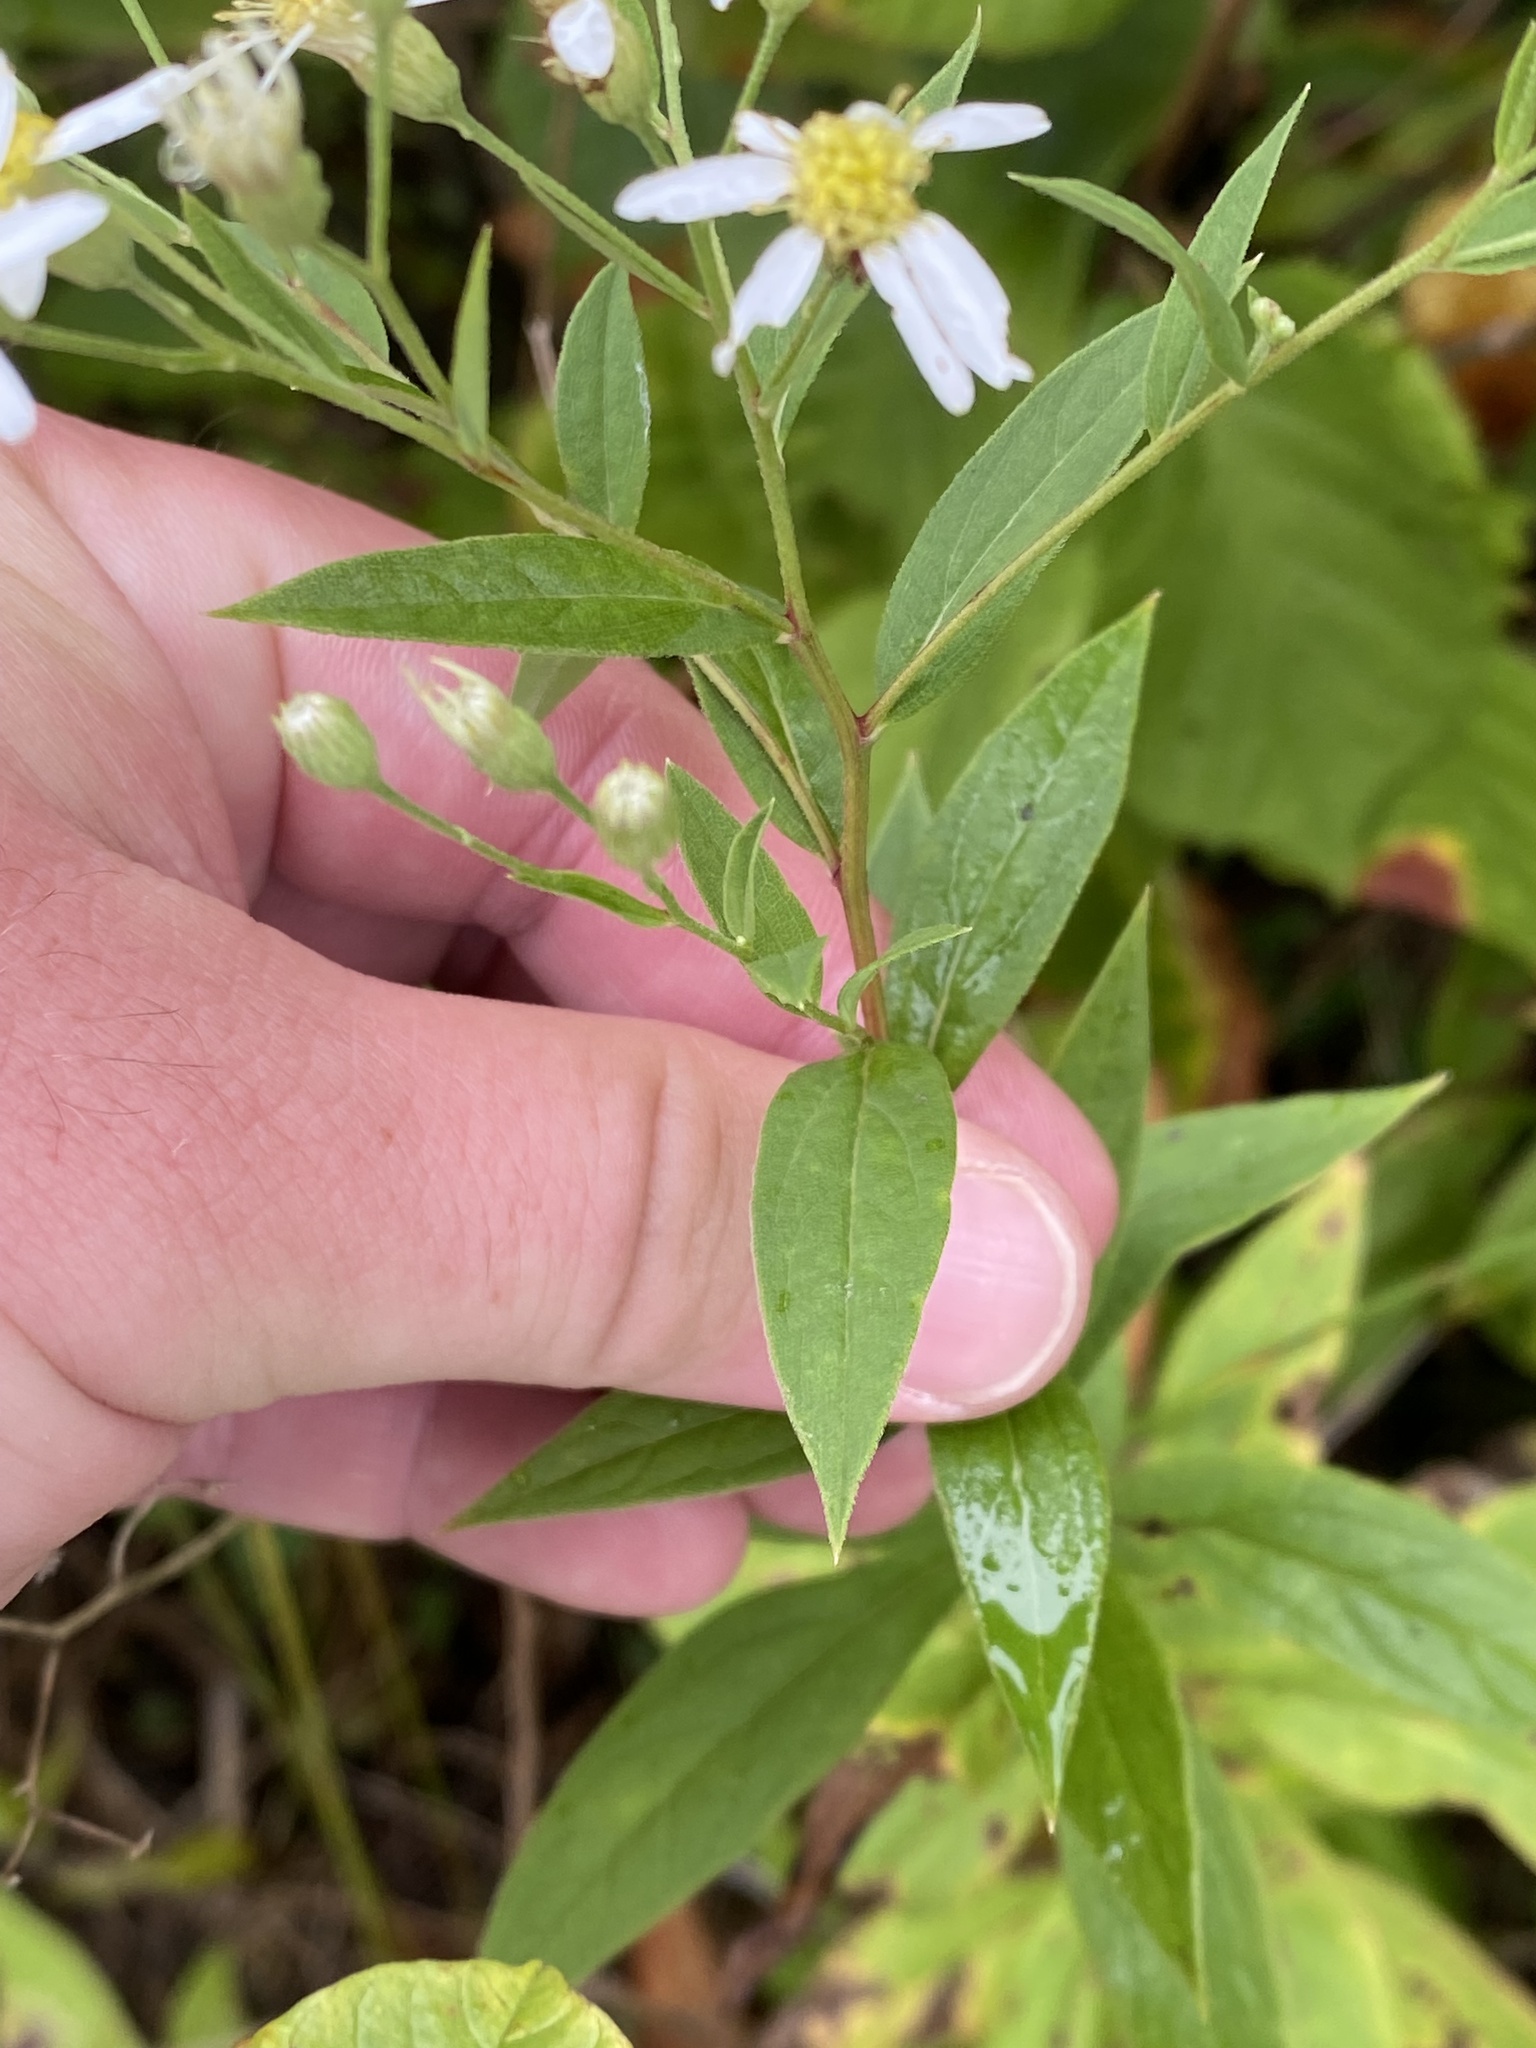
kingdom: Plantae
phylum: Tracheophyta
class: Magnoliopsida
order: Asterales
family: Asteraceae
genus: Doellingeria
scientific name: Doellingeria umbellata
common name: Flat-top white aster
